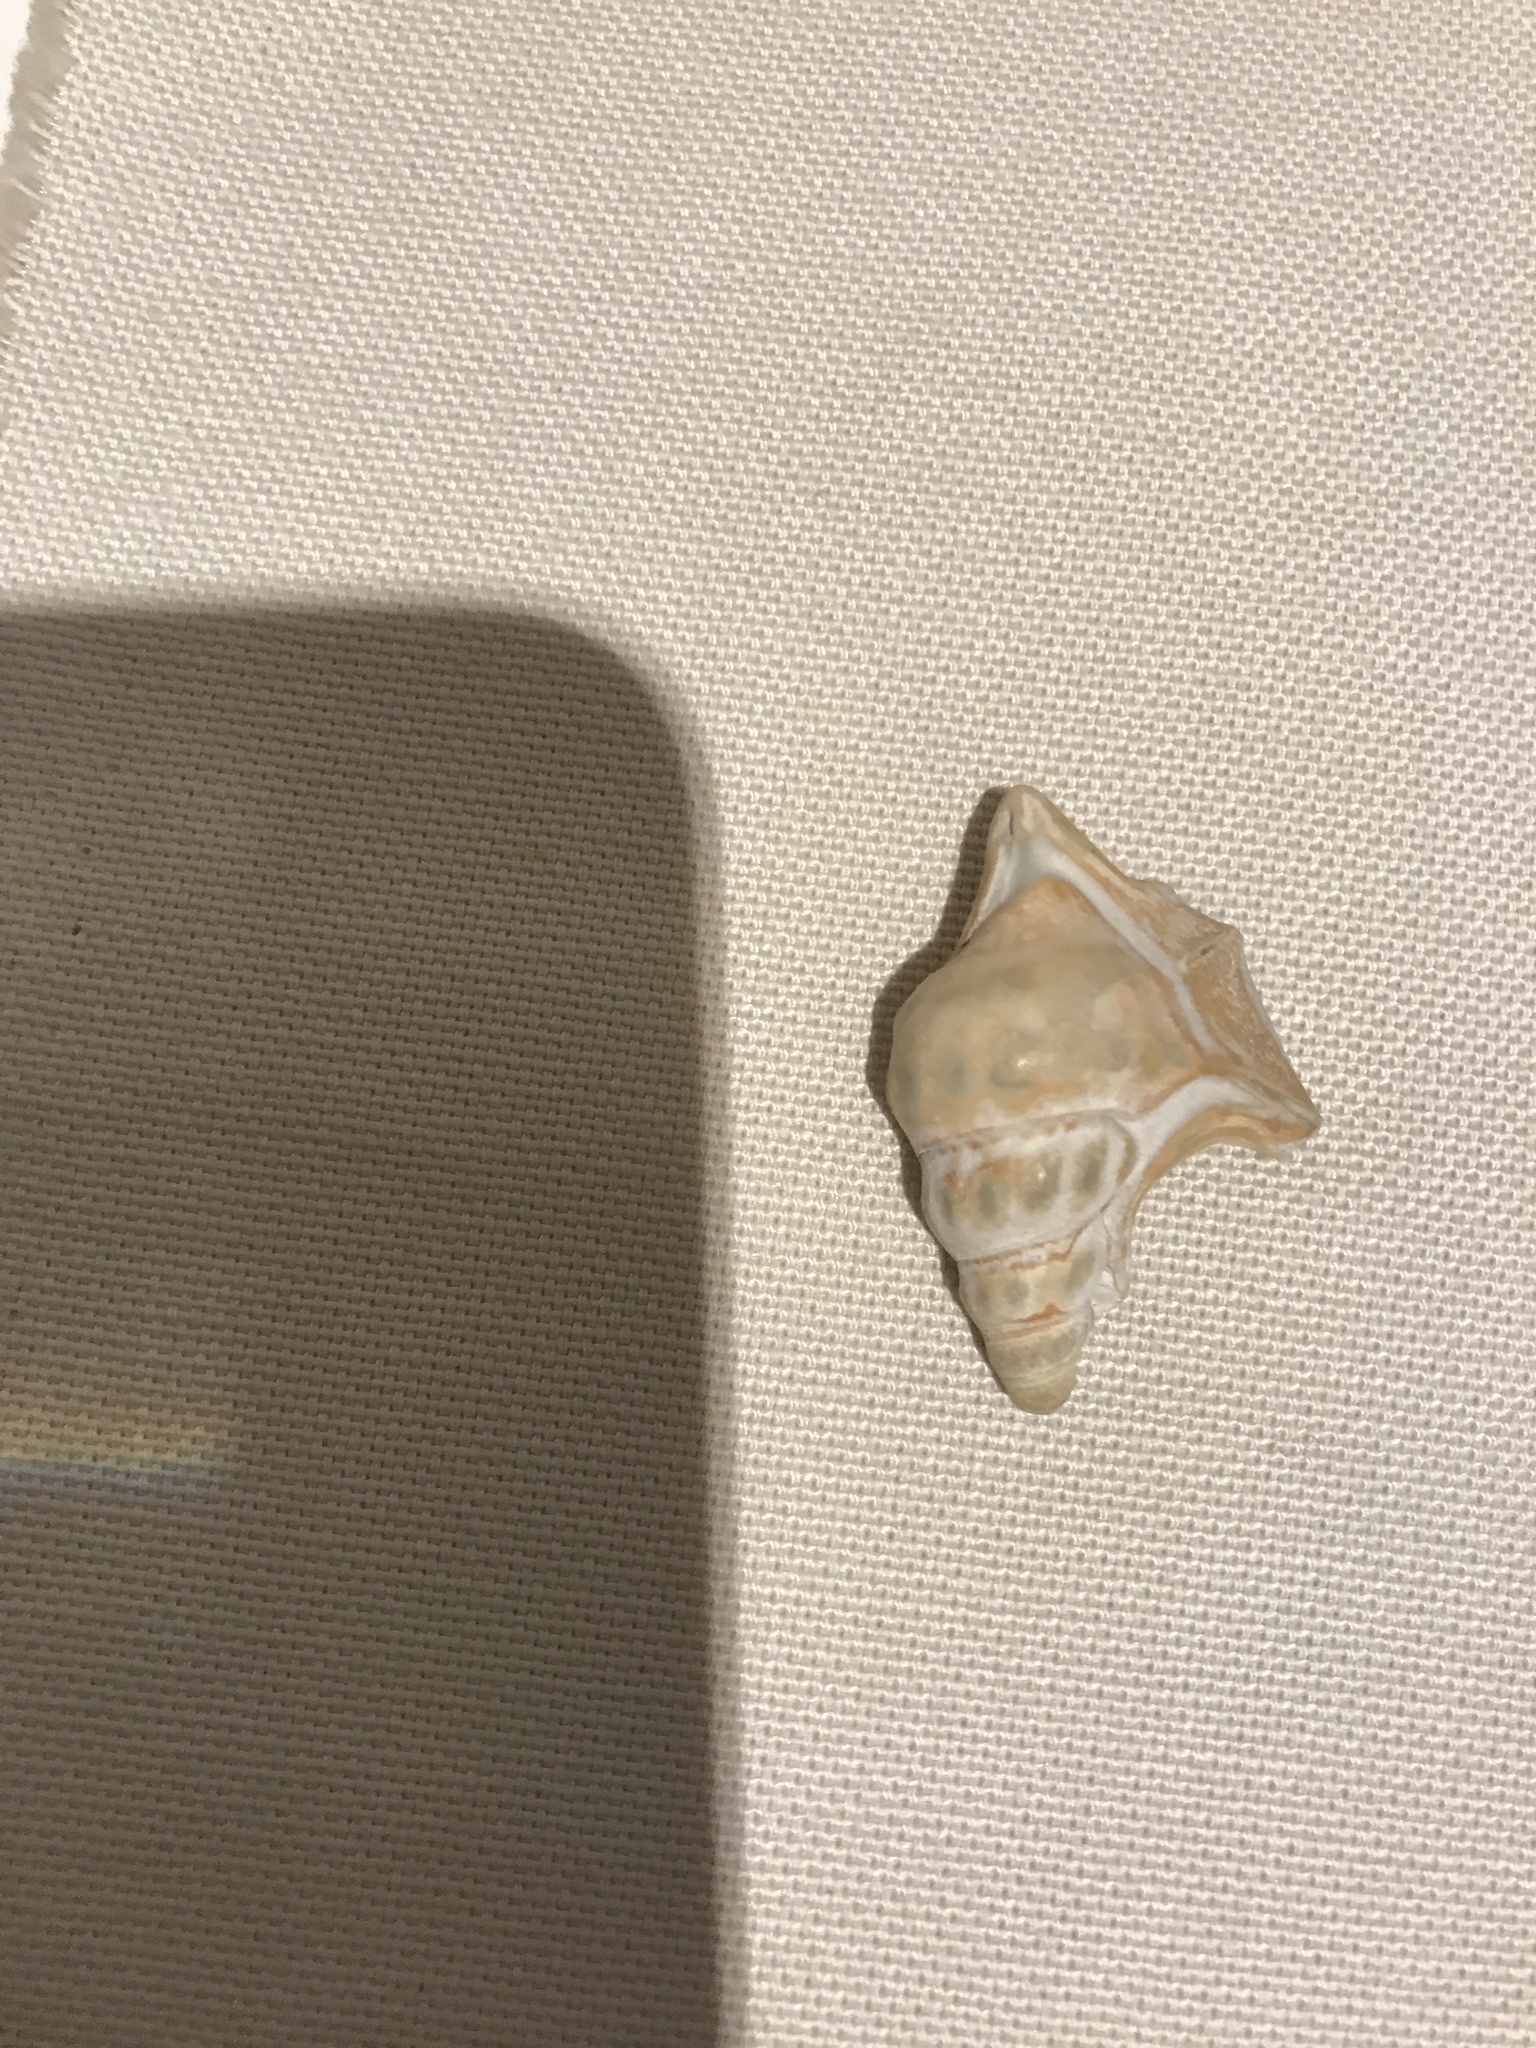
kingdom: Animalia
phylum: Mollusca
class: Gastropoda
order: Littorinimorpha
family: Aporrhaidae
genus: Aporrhais
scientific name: Aporrhais pespelecani
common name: Common pelican’s foot
